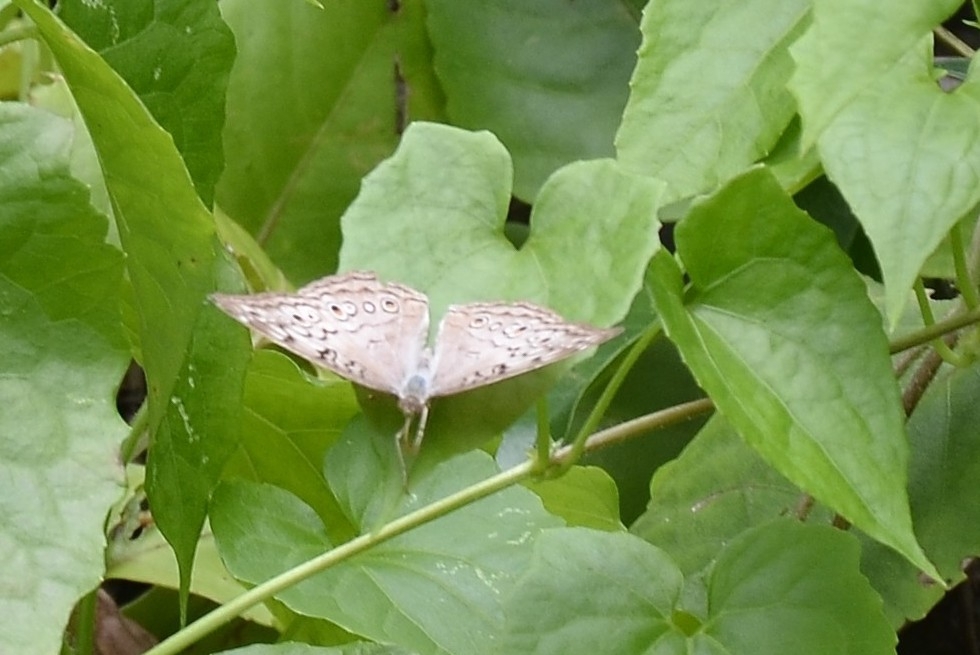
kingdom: Animalia
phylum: Arthropoda
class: Insecta
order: Lepidoptera
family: Nymphalidae
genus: Junonia
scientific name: Junonia atlites
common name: Grey pansy
